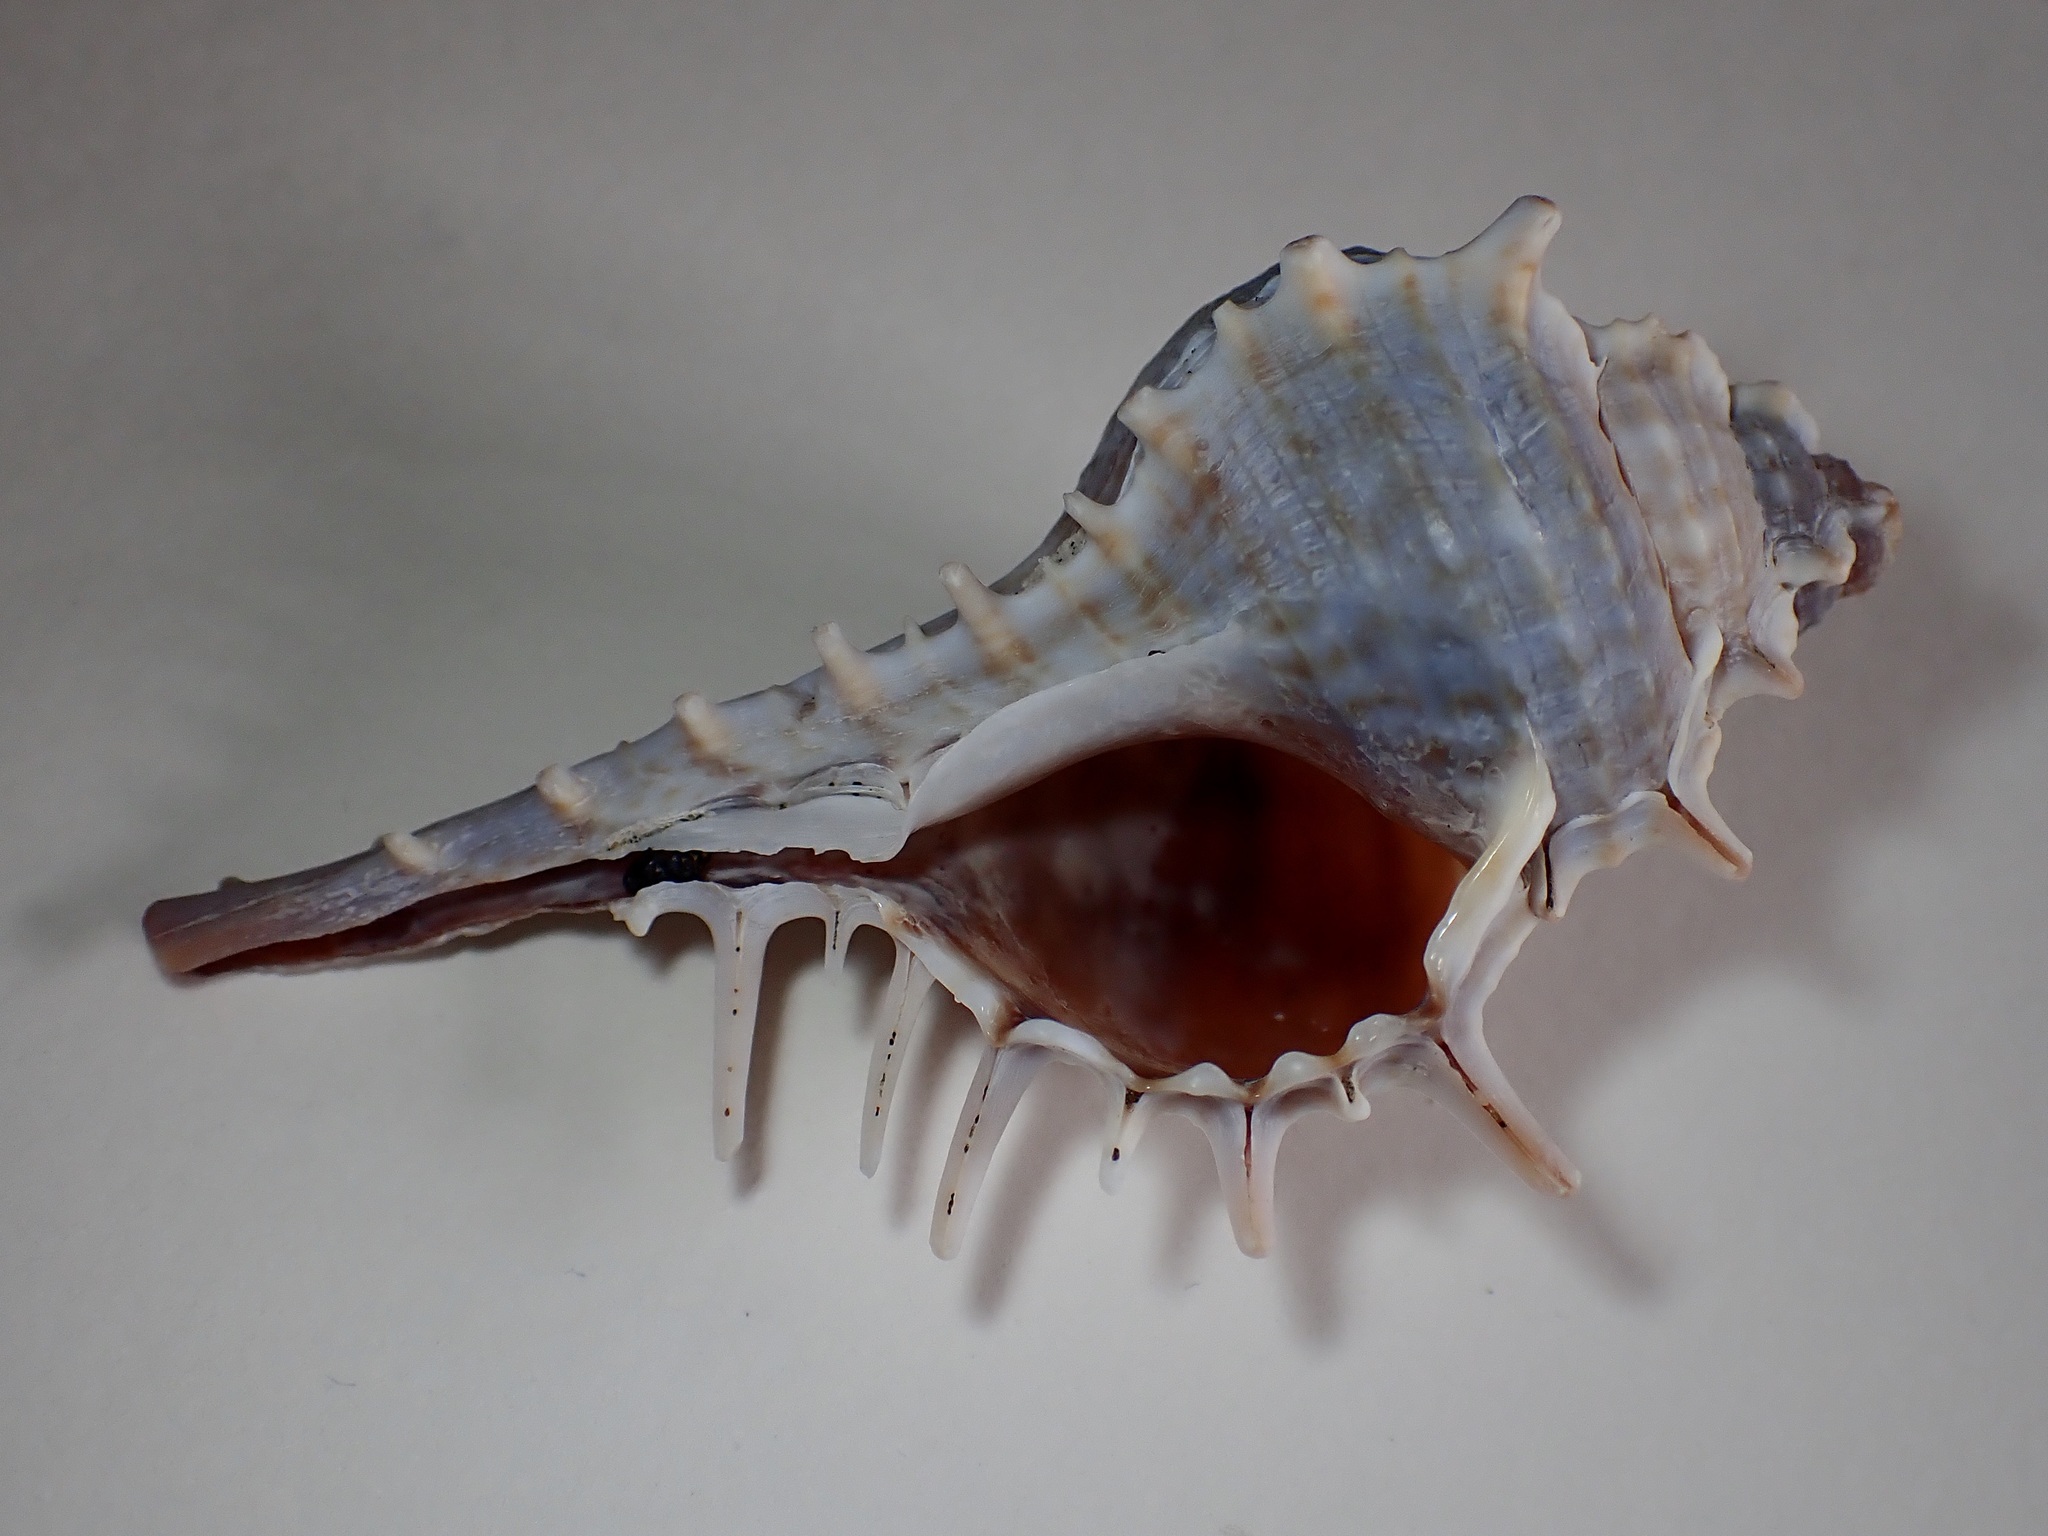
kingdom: Animalia
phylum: Mollusca
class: Gastropoda
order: Neogastropoda
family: Muricidae
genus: Murex
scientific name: Murex scolopax
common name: Woodcock murex
